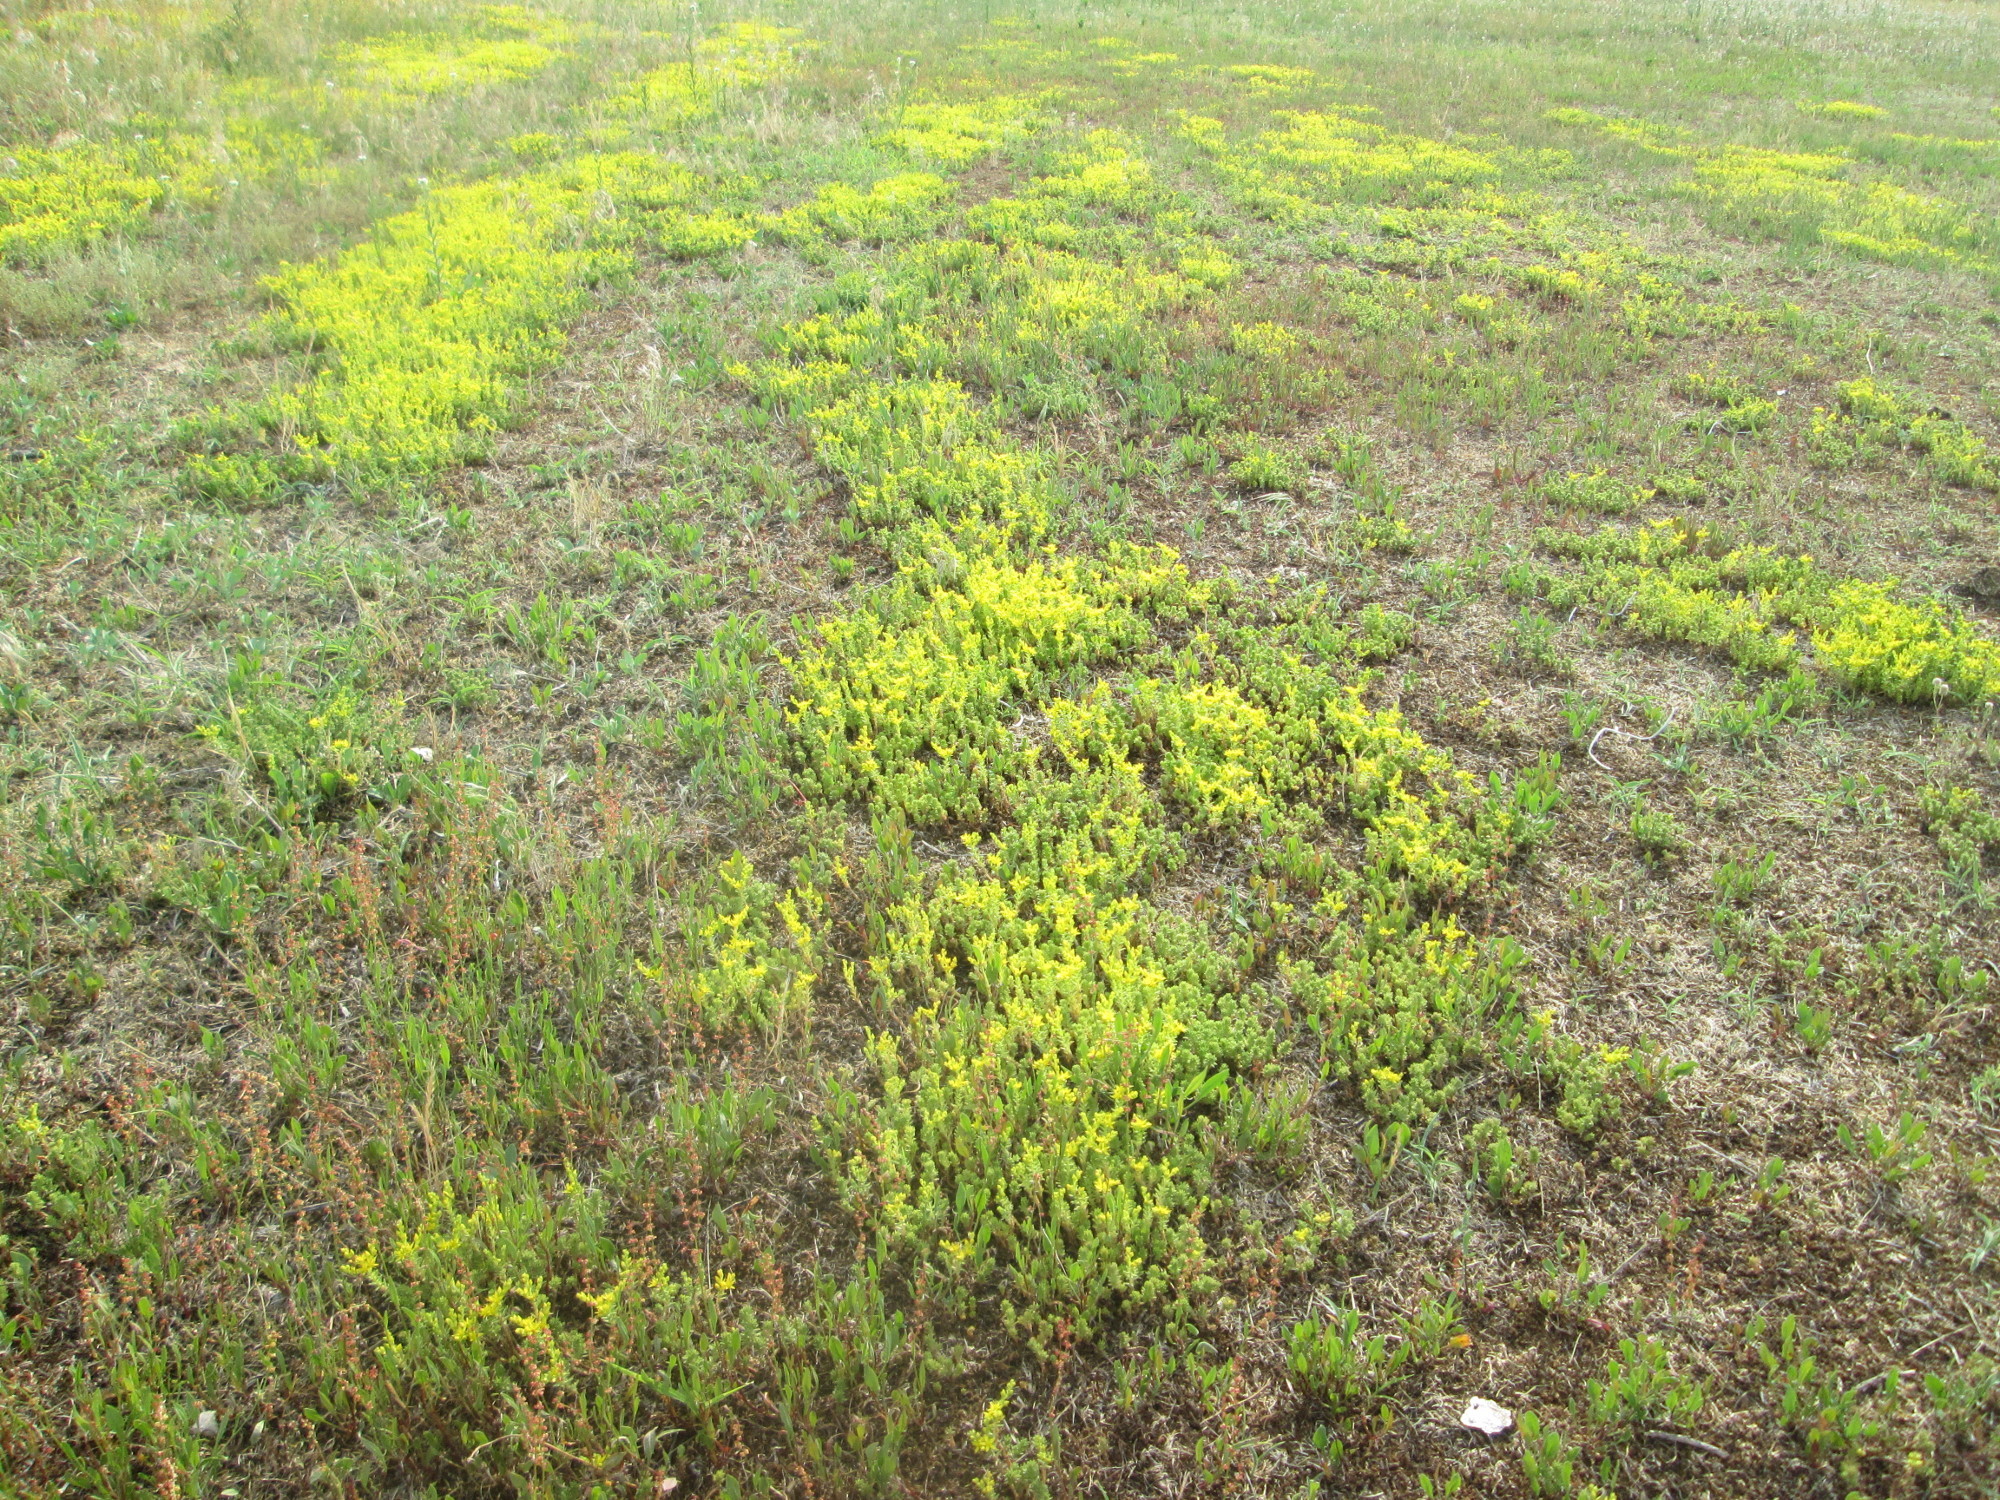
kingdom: Plantae
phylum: Tracheophyta
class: Magnoliopsida
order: Saxifragales
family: Crassulaceae
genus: Sedum
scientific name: Sedum sexangulare
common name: Tasteless stonecrop
